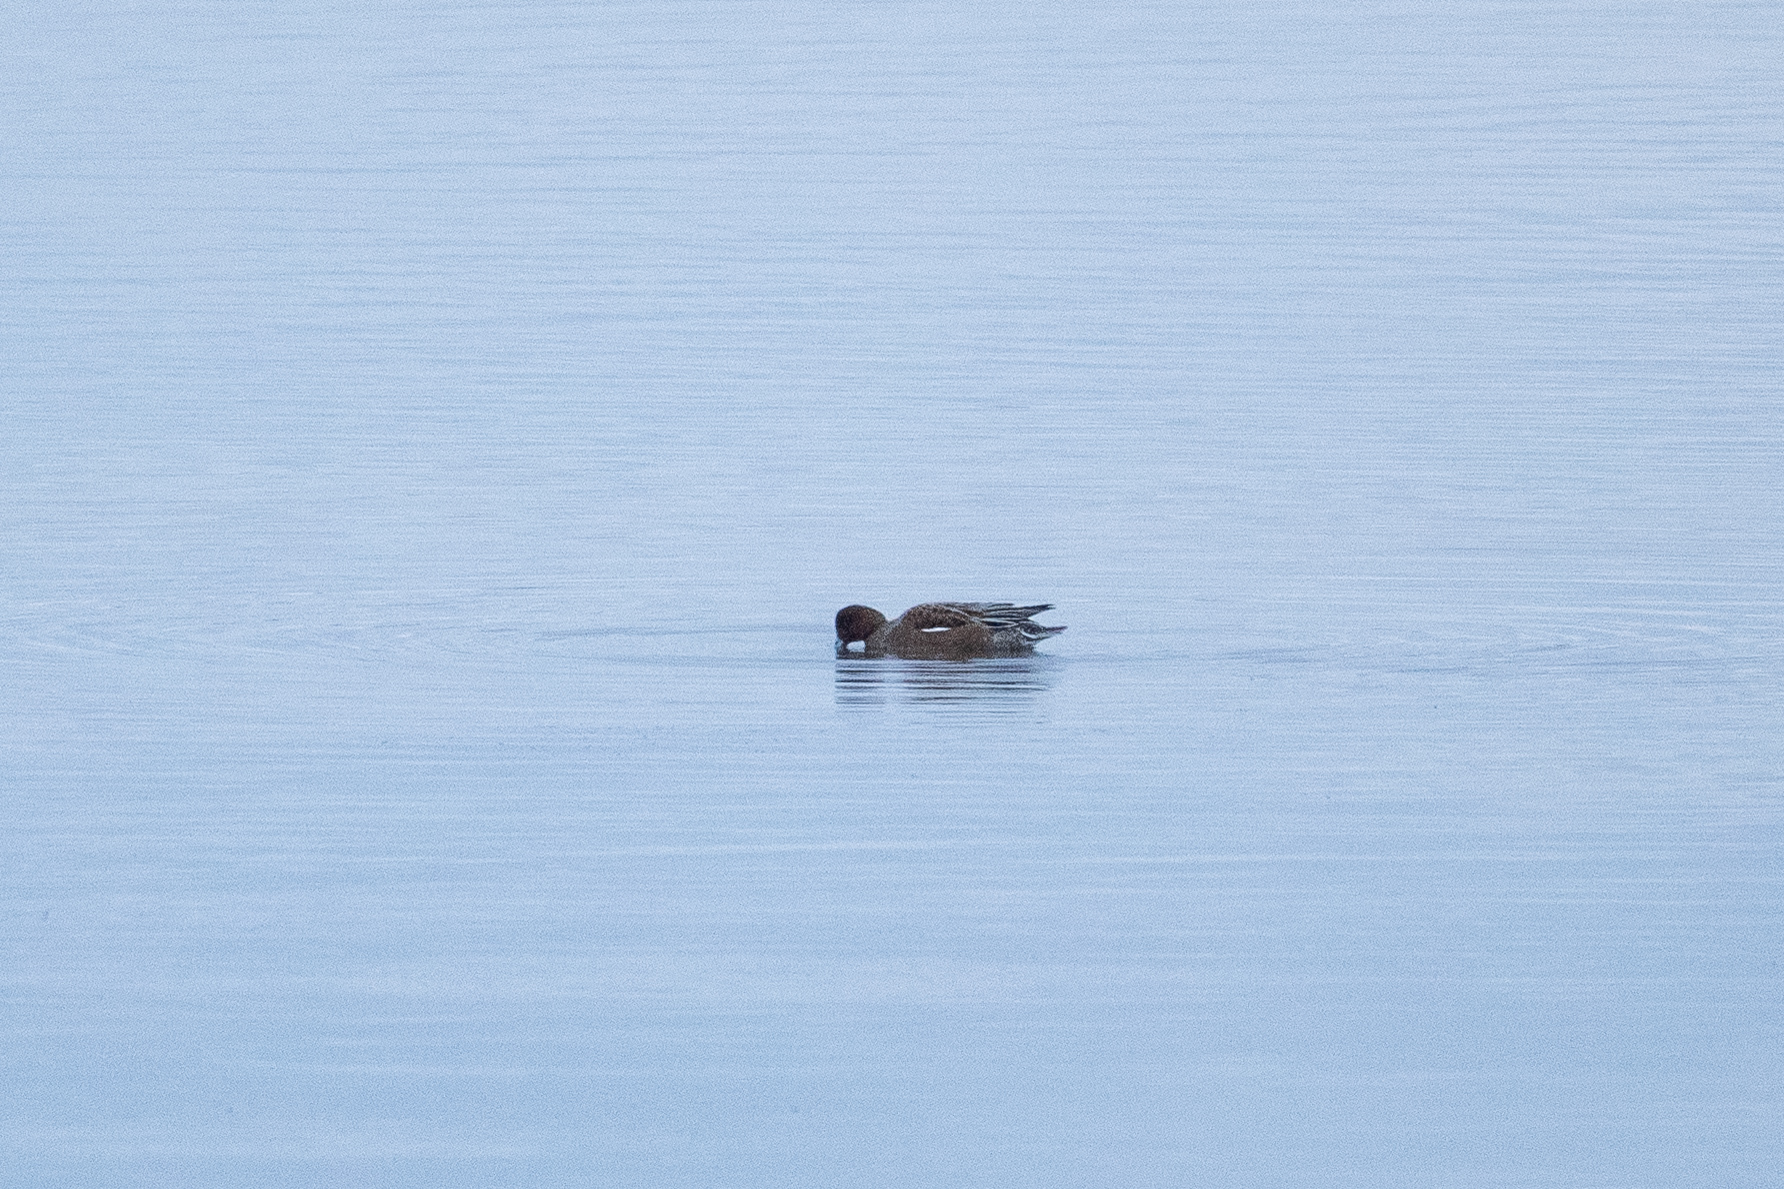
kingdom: Animalia
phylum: Chordata
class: Aves
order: Anseriformes
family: Anatidae
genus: Mareca
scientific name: Mareca penelope
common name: Eurasian wigeon
